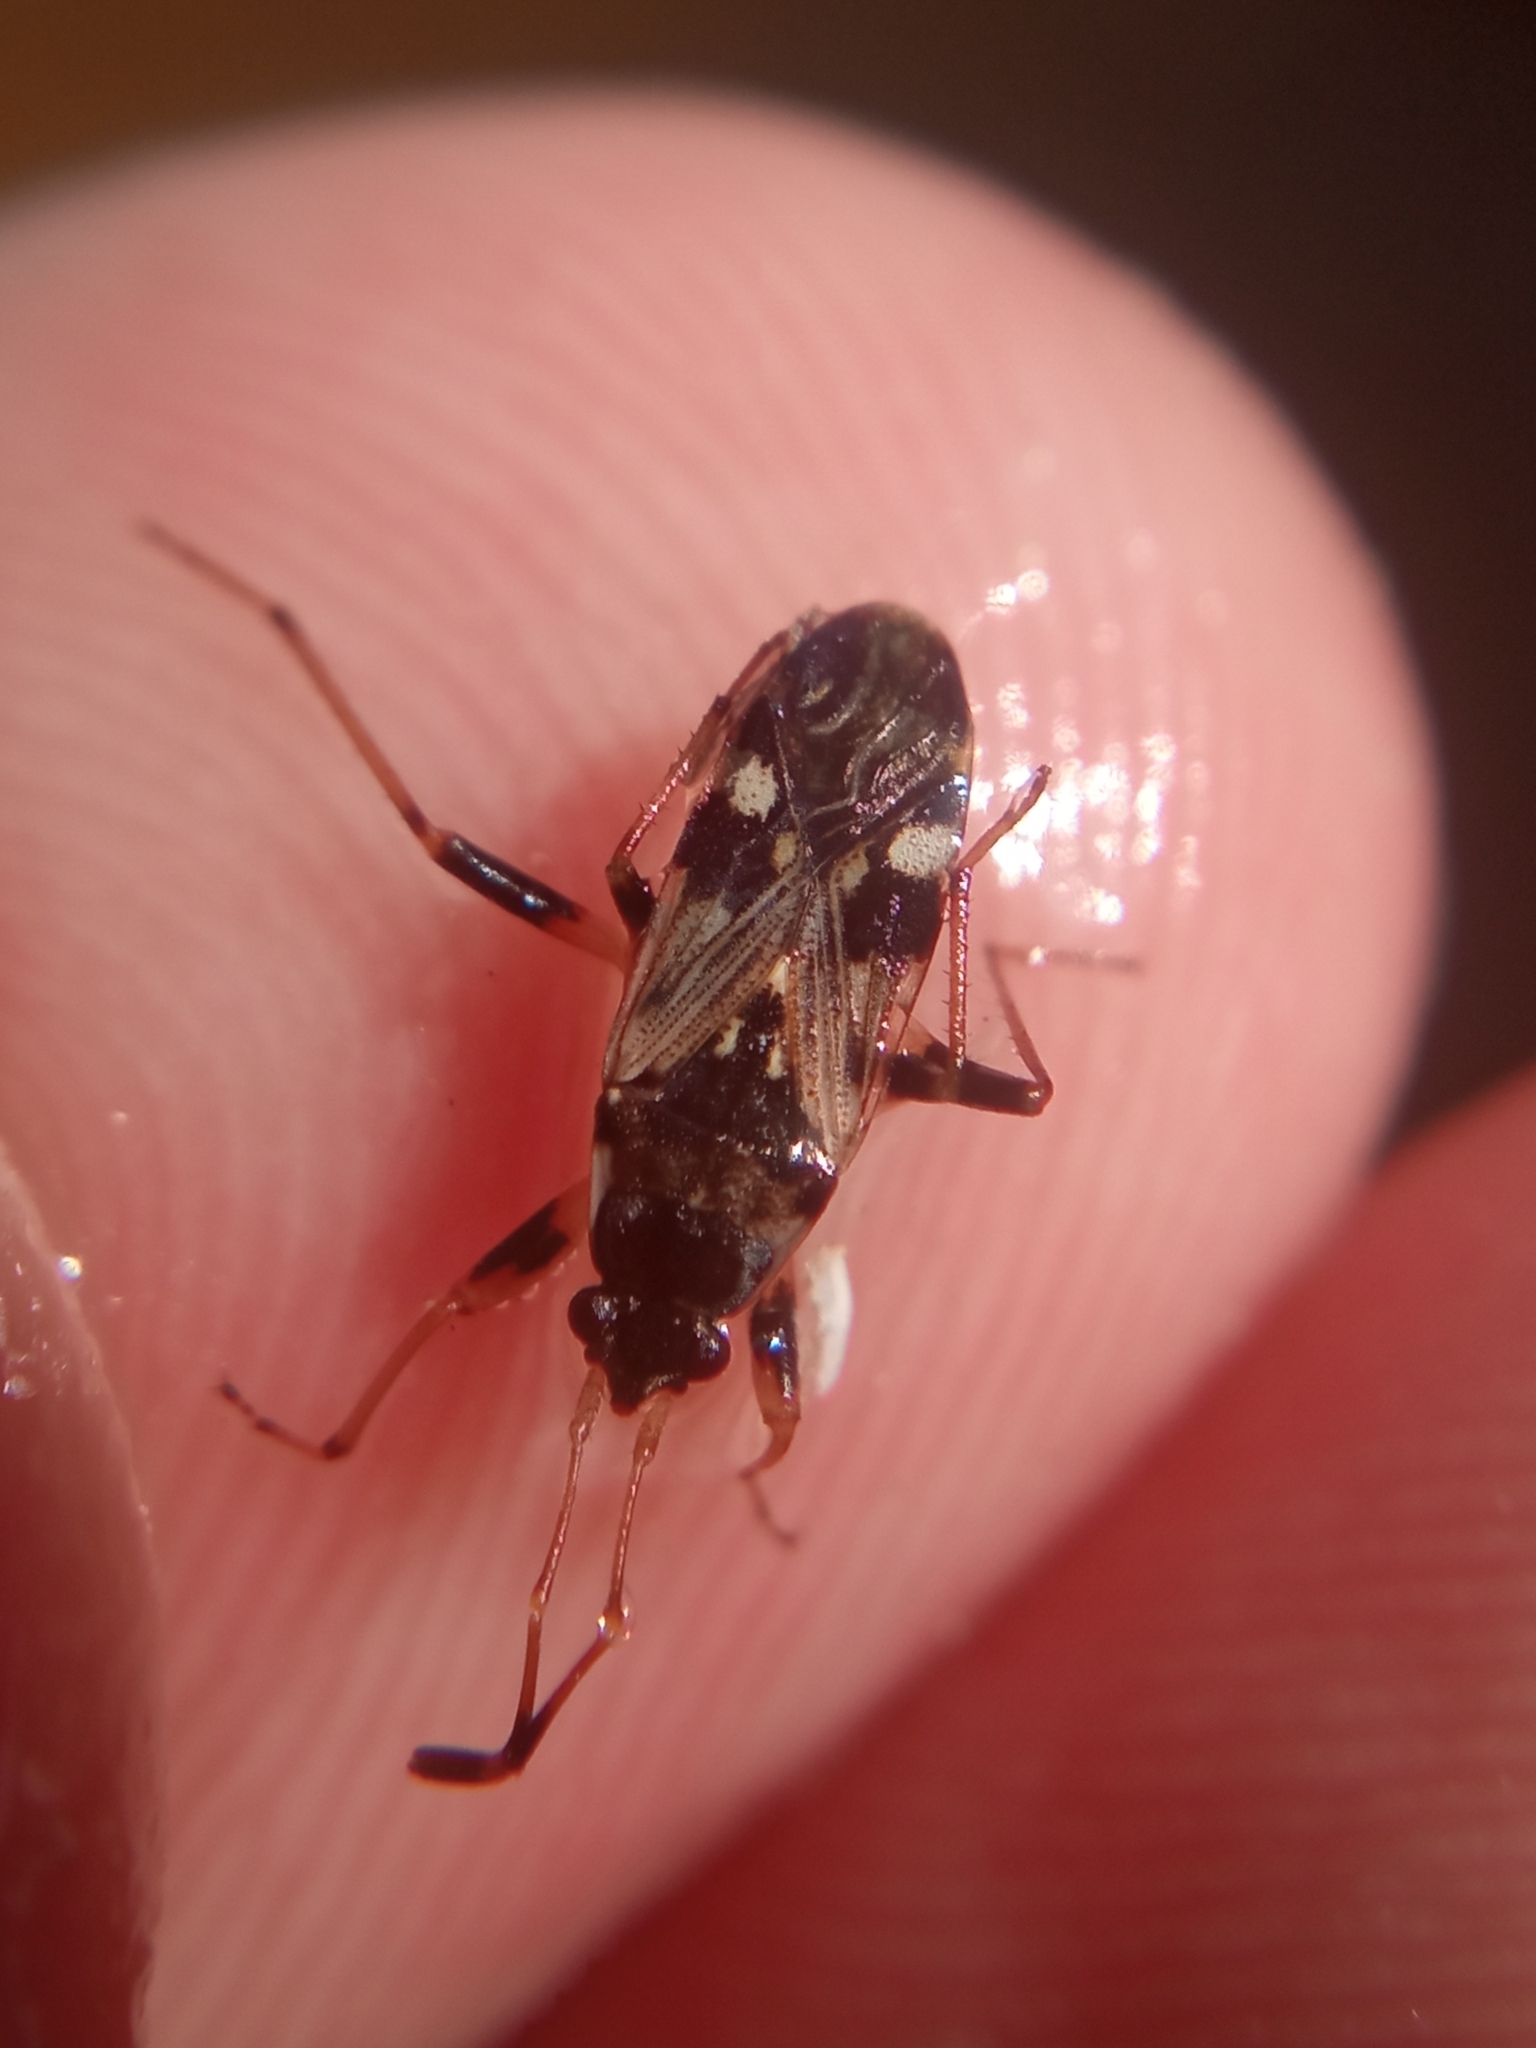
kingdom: Animalia
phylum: Arthropoda
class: Insecta
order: Hemiptera
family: Rhyparochromidae
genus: Beosus
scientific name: Beosus maritimus
